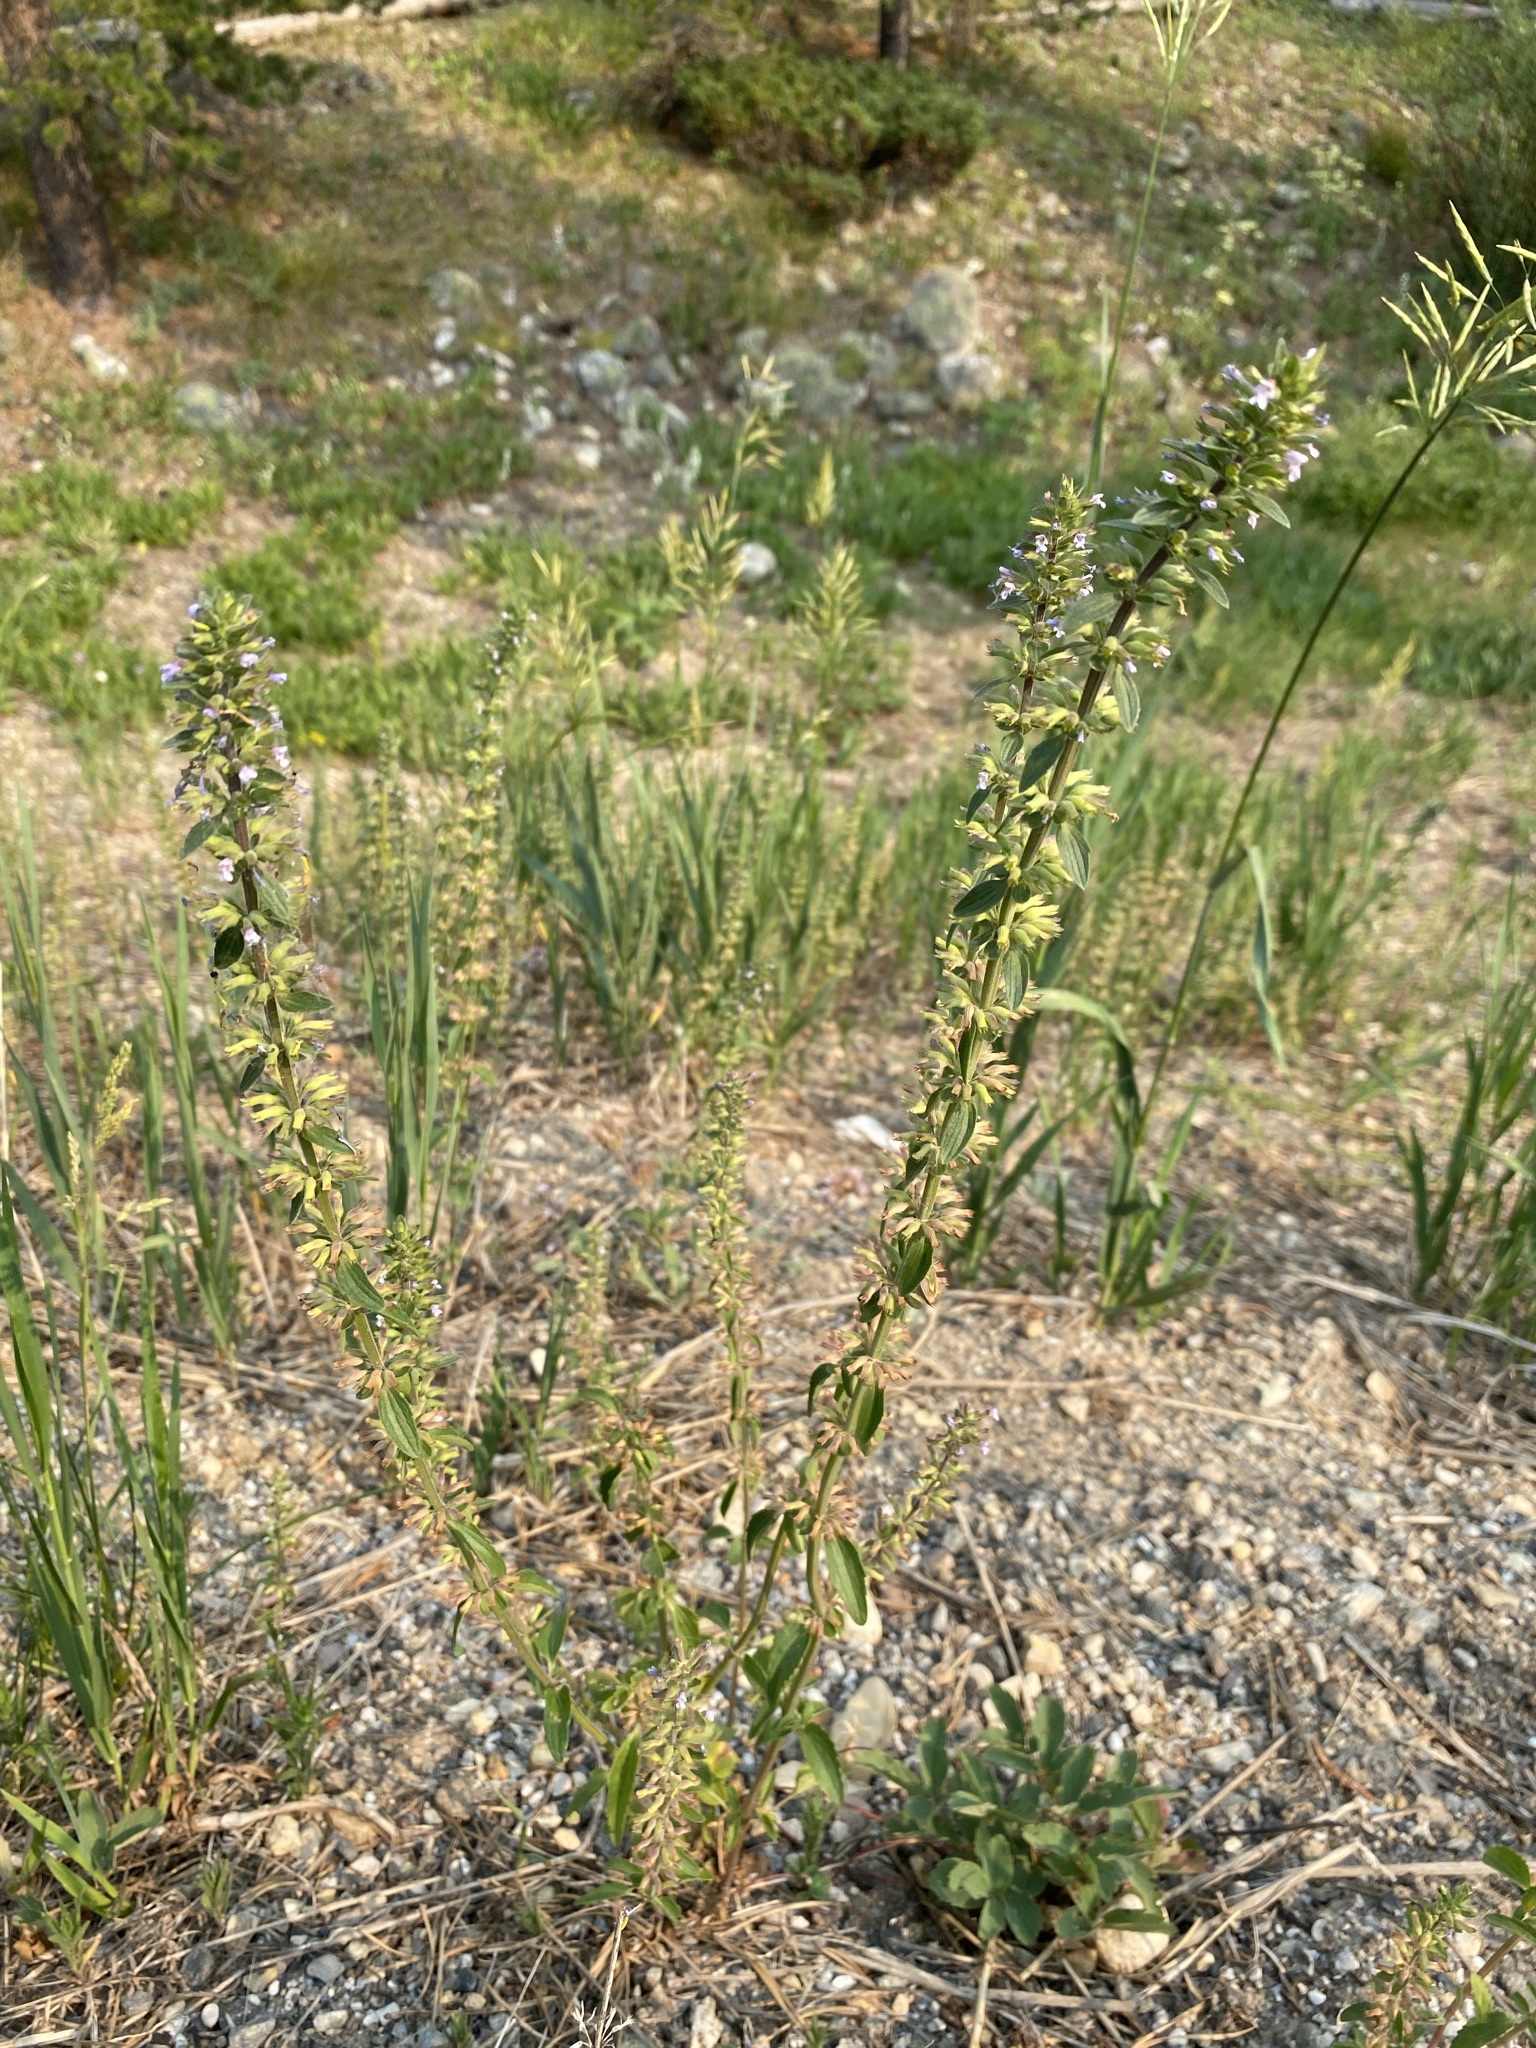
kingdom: Plantae
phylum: Tracheophyta
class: Magnoliopsida
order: Lamiales
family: Lamiaceae
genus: Dracocephalum
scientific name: Dracocephalum thymiflorum
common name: Thymeleaf dragonhead
